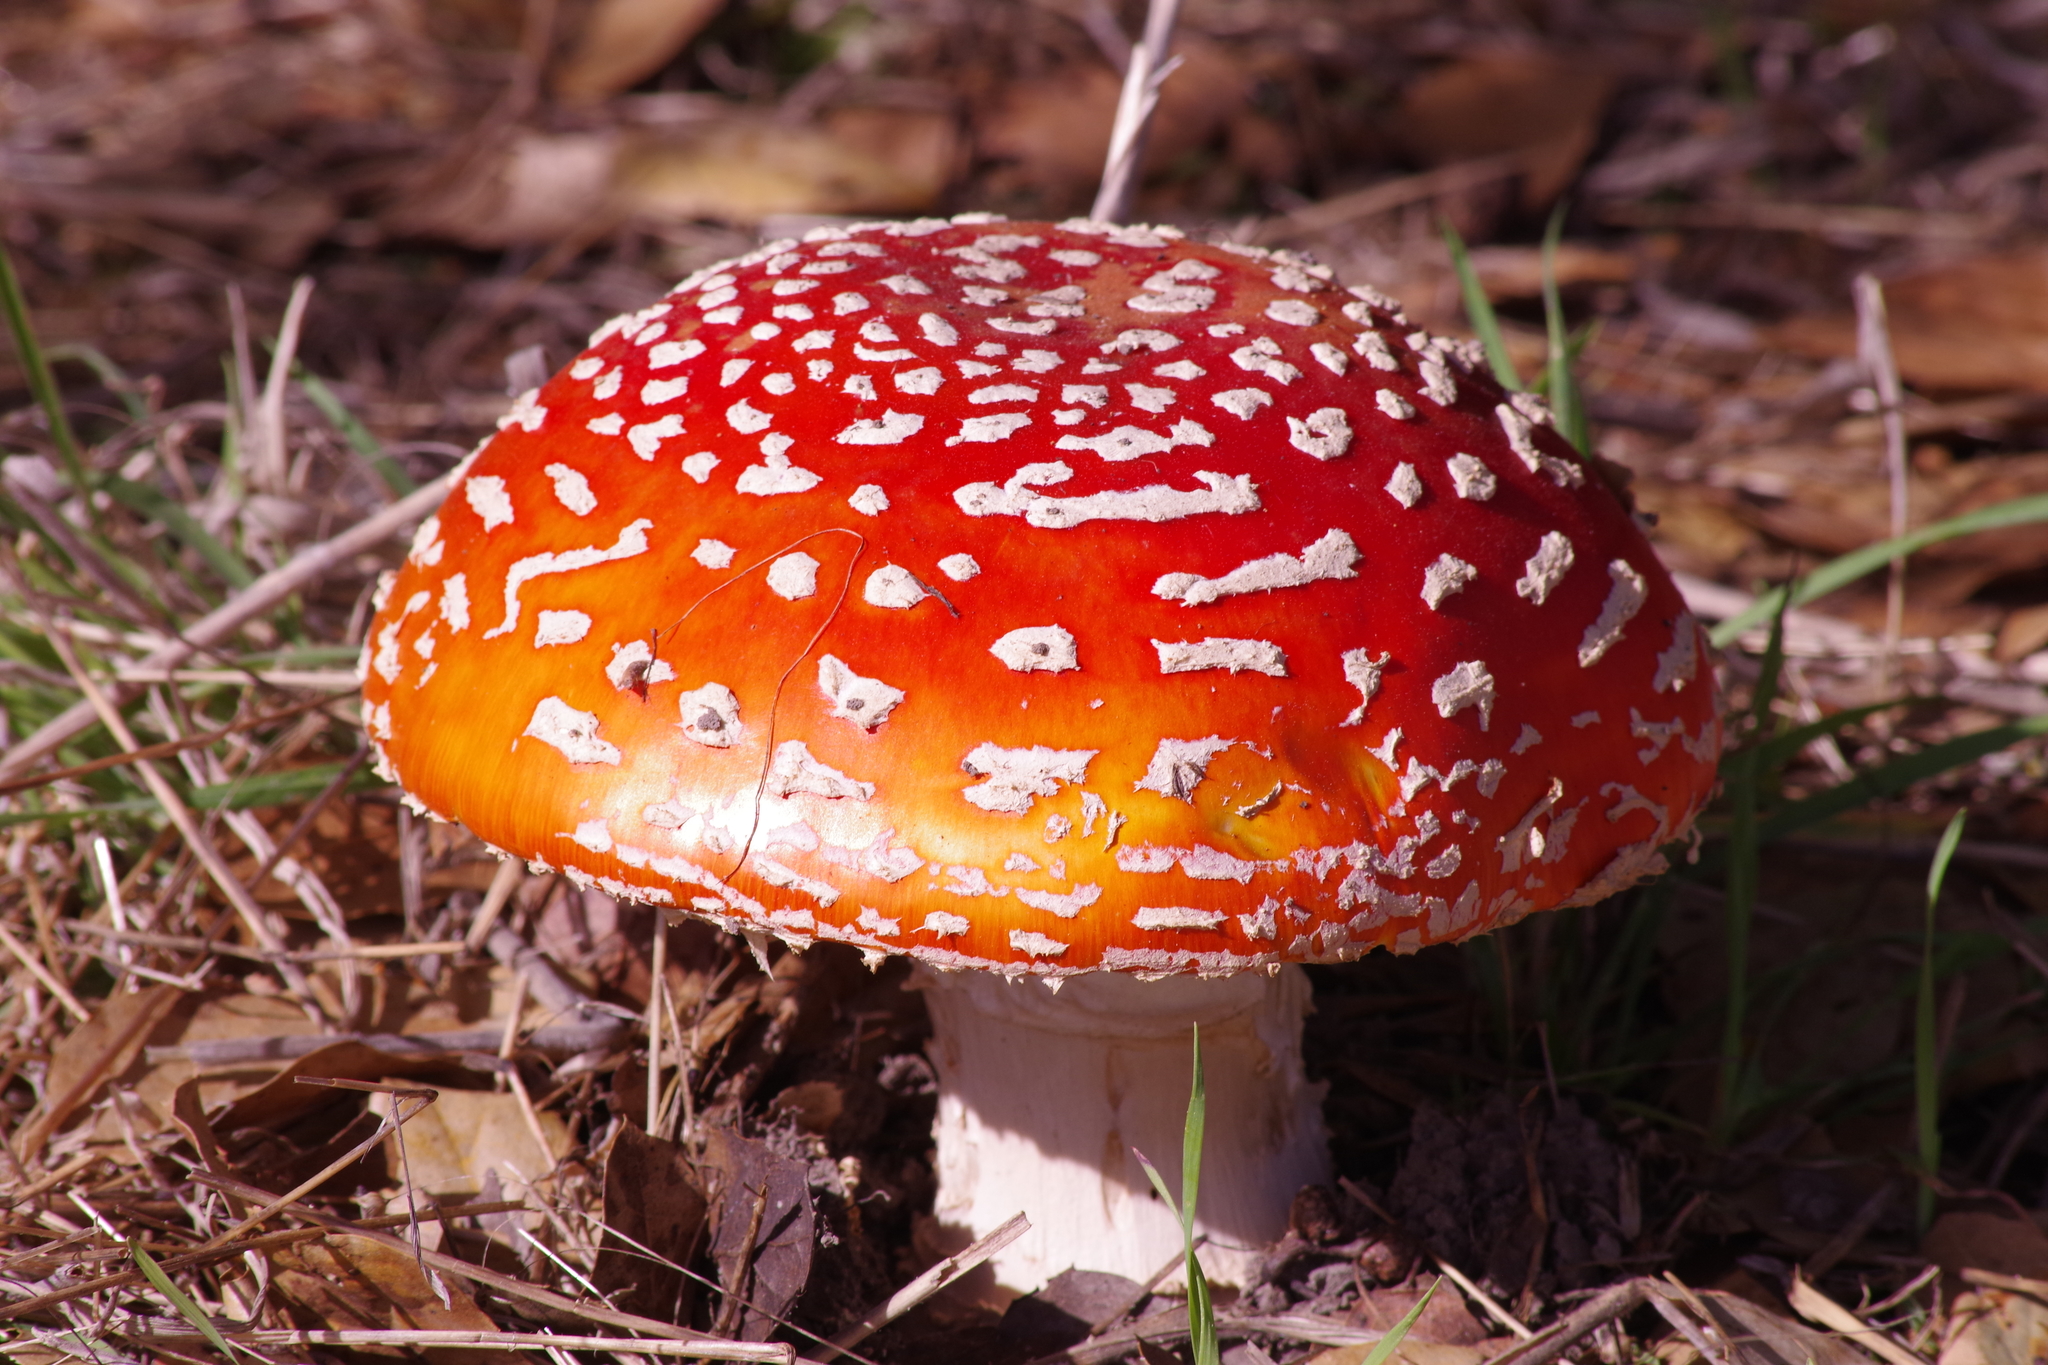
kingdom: Fungi
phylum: Basidiomycota
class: Agaricomycetes
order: Agaricales
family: Amanitaceae
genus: Amanita
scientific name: Amanita muscaria
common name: Fly agaric
